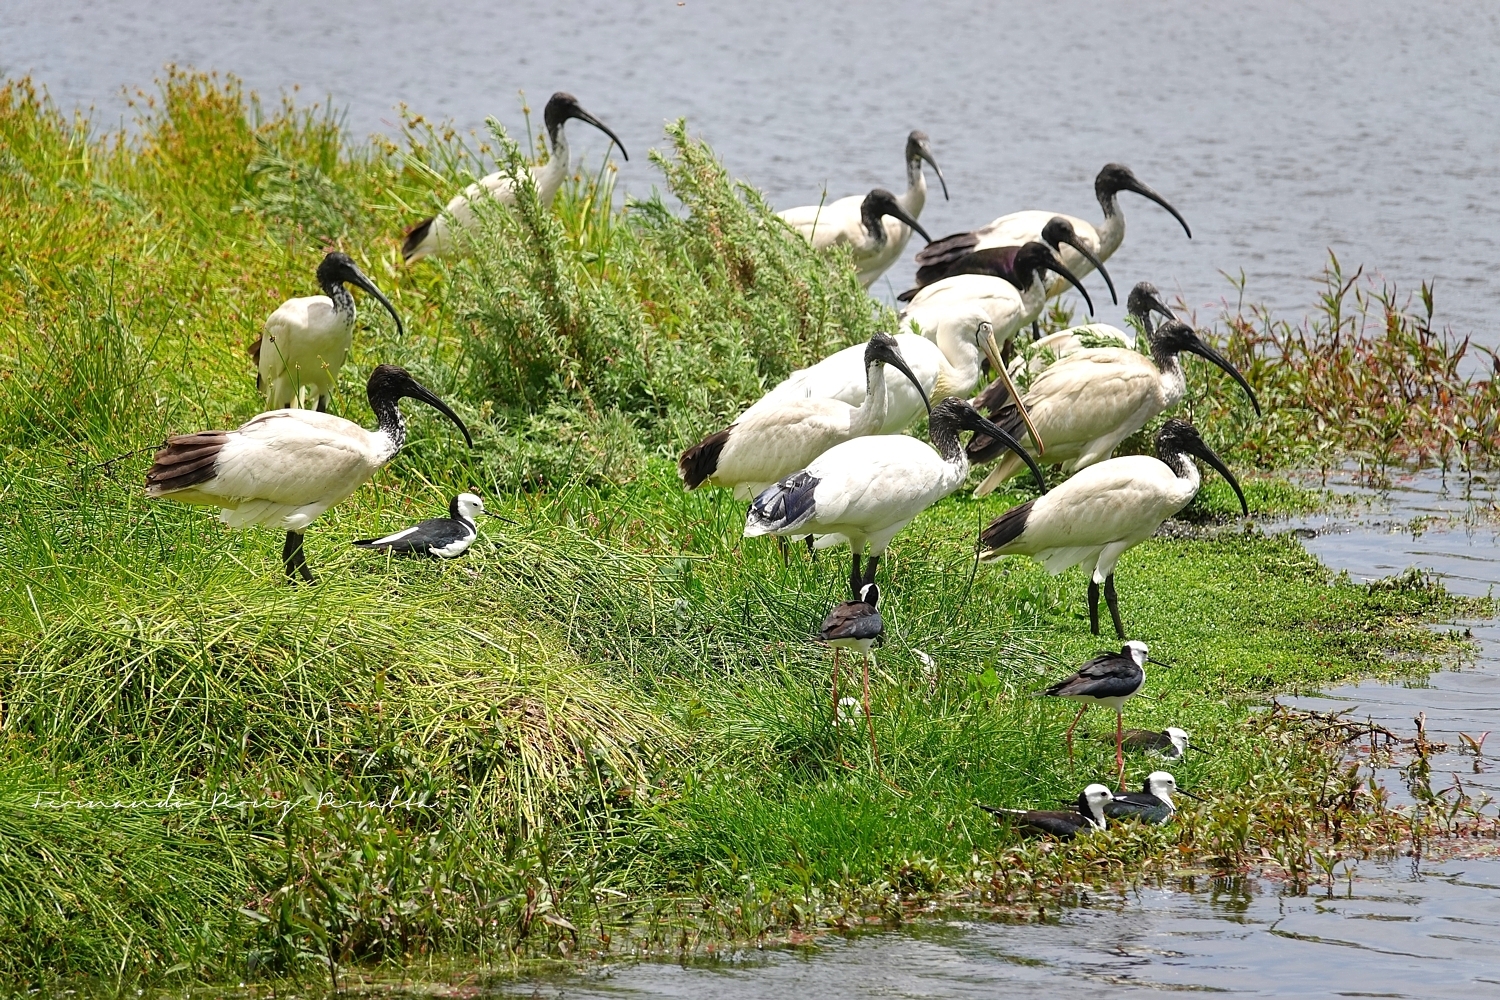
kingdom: Animalia
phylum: Chordata
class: Aves
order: Charadriiformes
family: Recurvirostridae
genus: Himantopus
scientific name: Himantopus leucocephalus
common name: White-headed stilt
